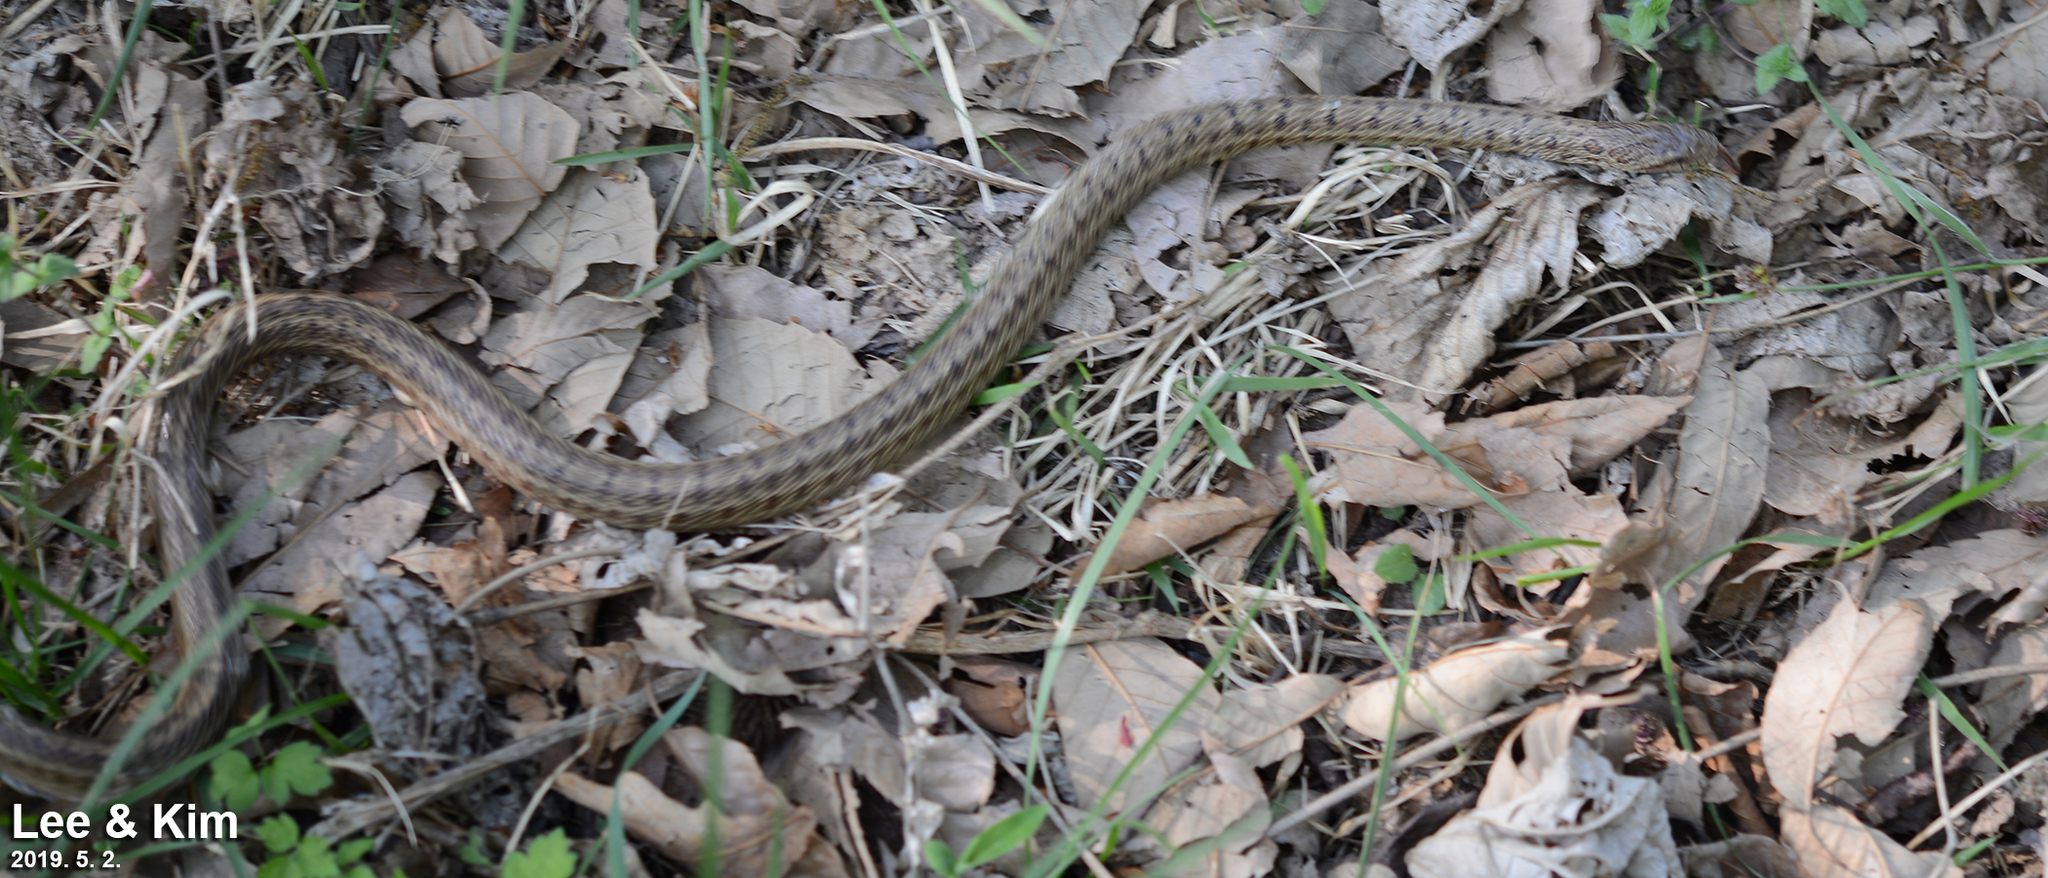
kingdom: Animalia
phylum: Chordata
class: Squamata
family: Colubridae
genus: Elaphe
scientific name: Elaphe dione
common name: Dione ratsnake
